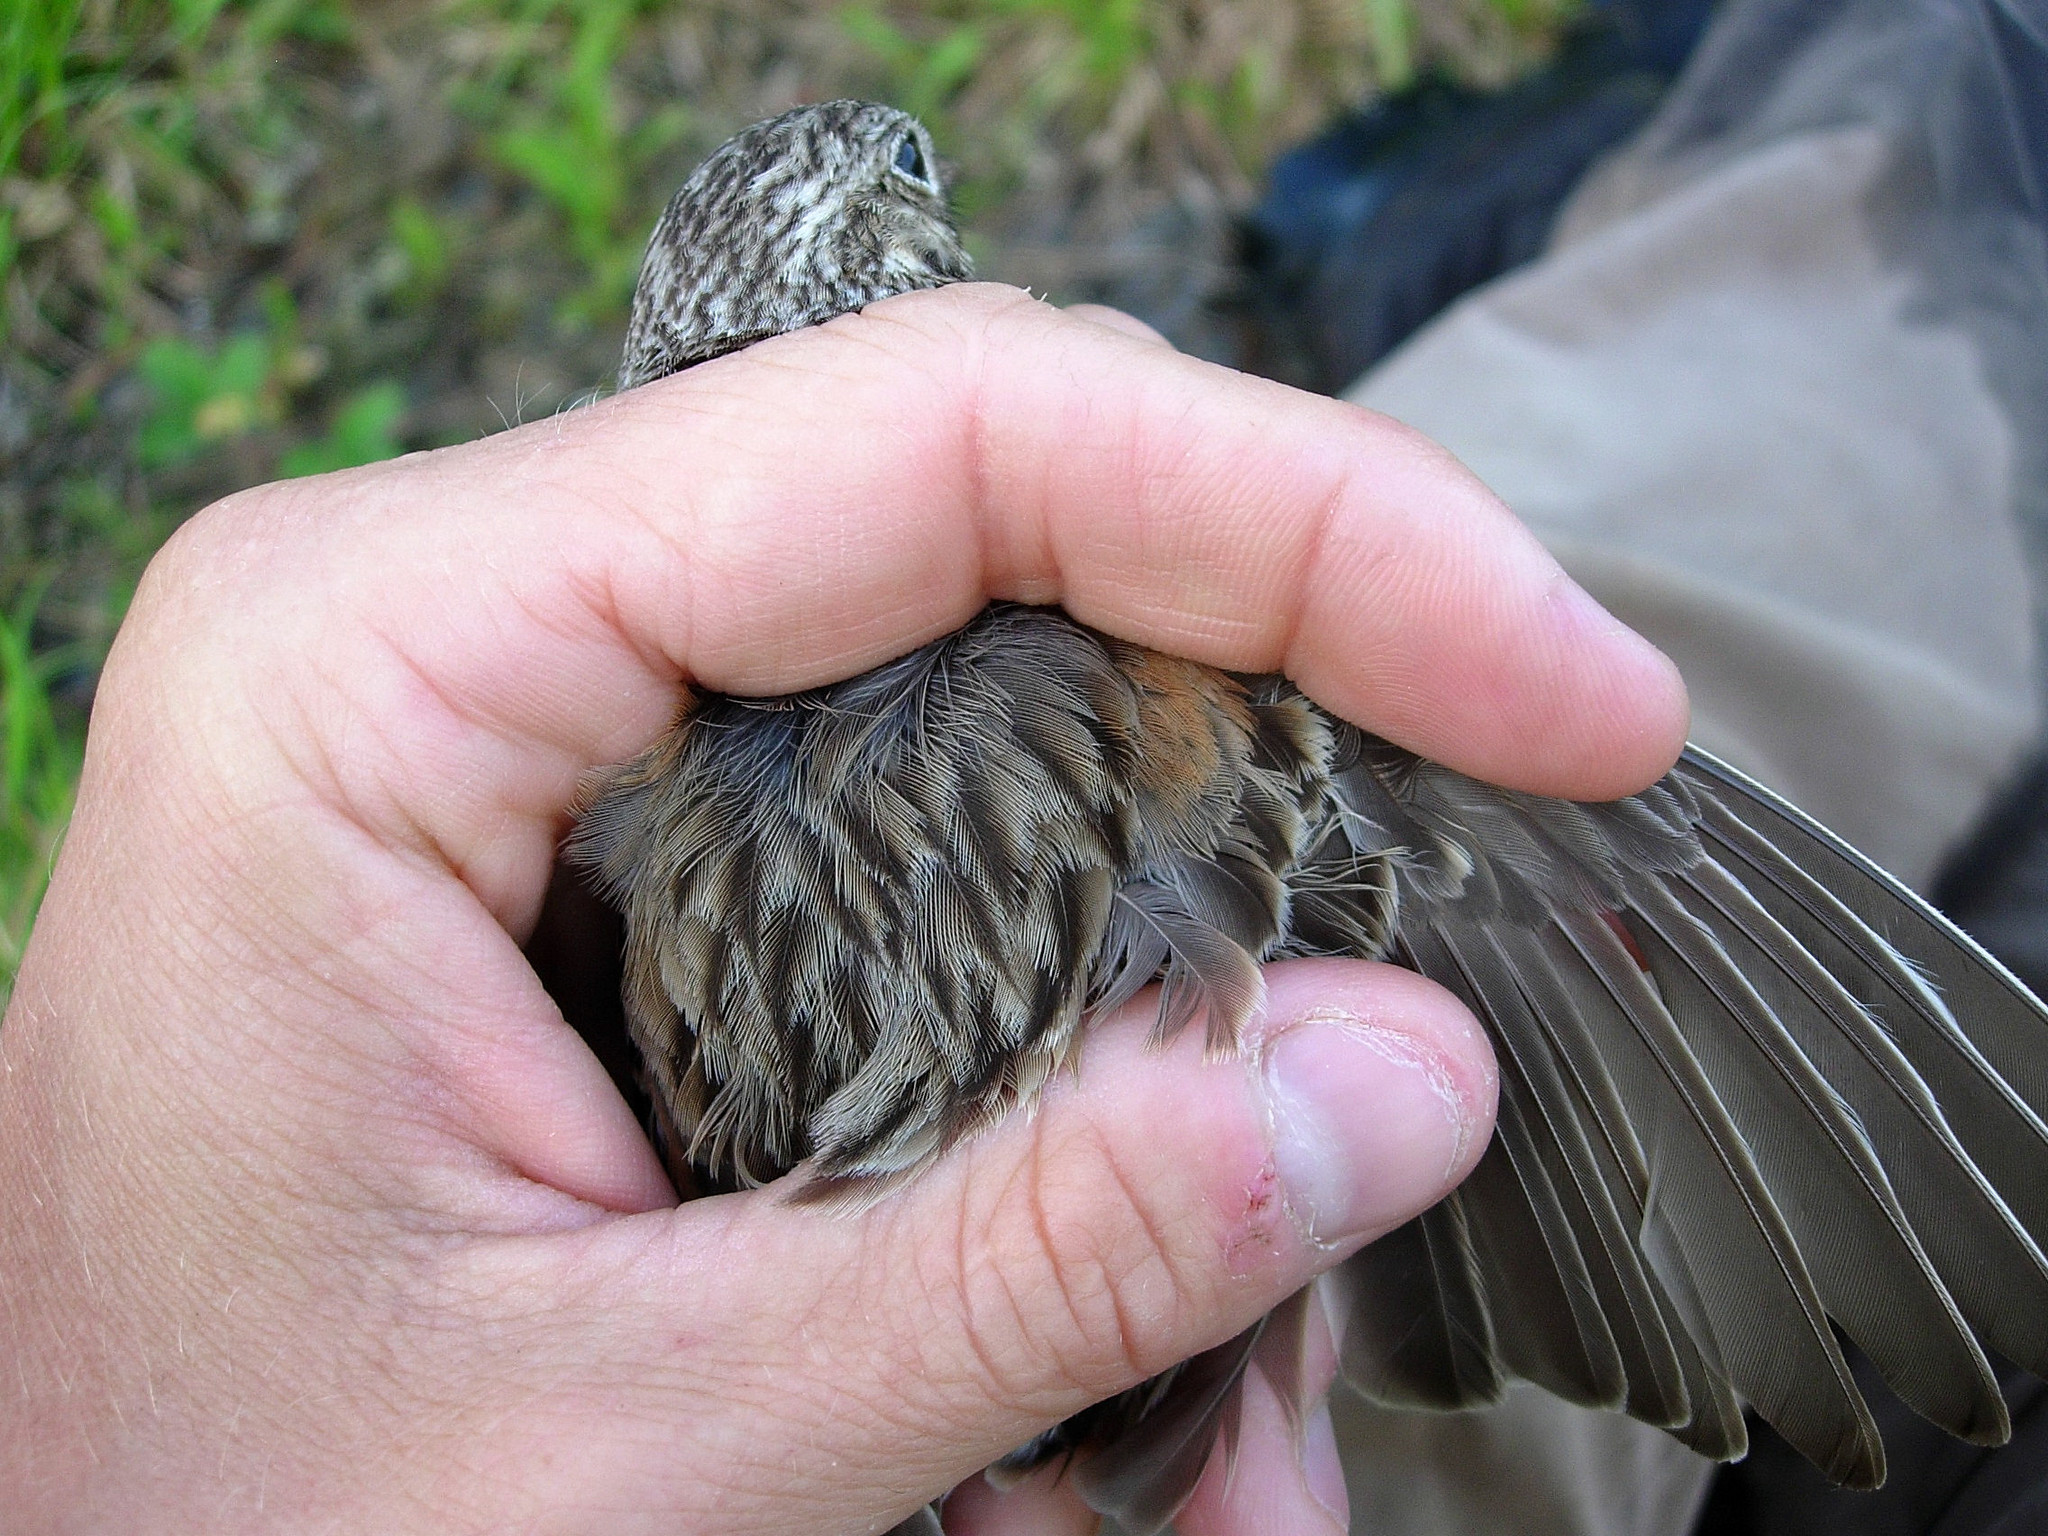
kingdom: Animalia
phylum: Chordata
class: Aves
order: Passeriformes
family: Passerellidae
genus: Pooecetes
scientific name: Pooecetes gramineus
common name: Vesper sparrow
